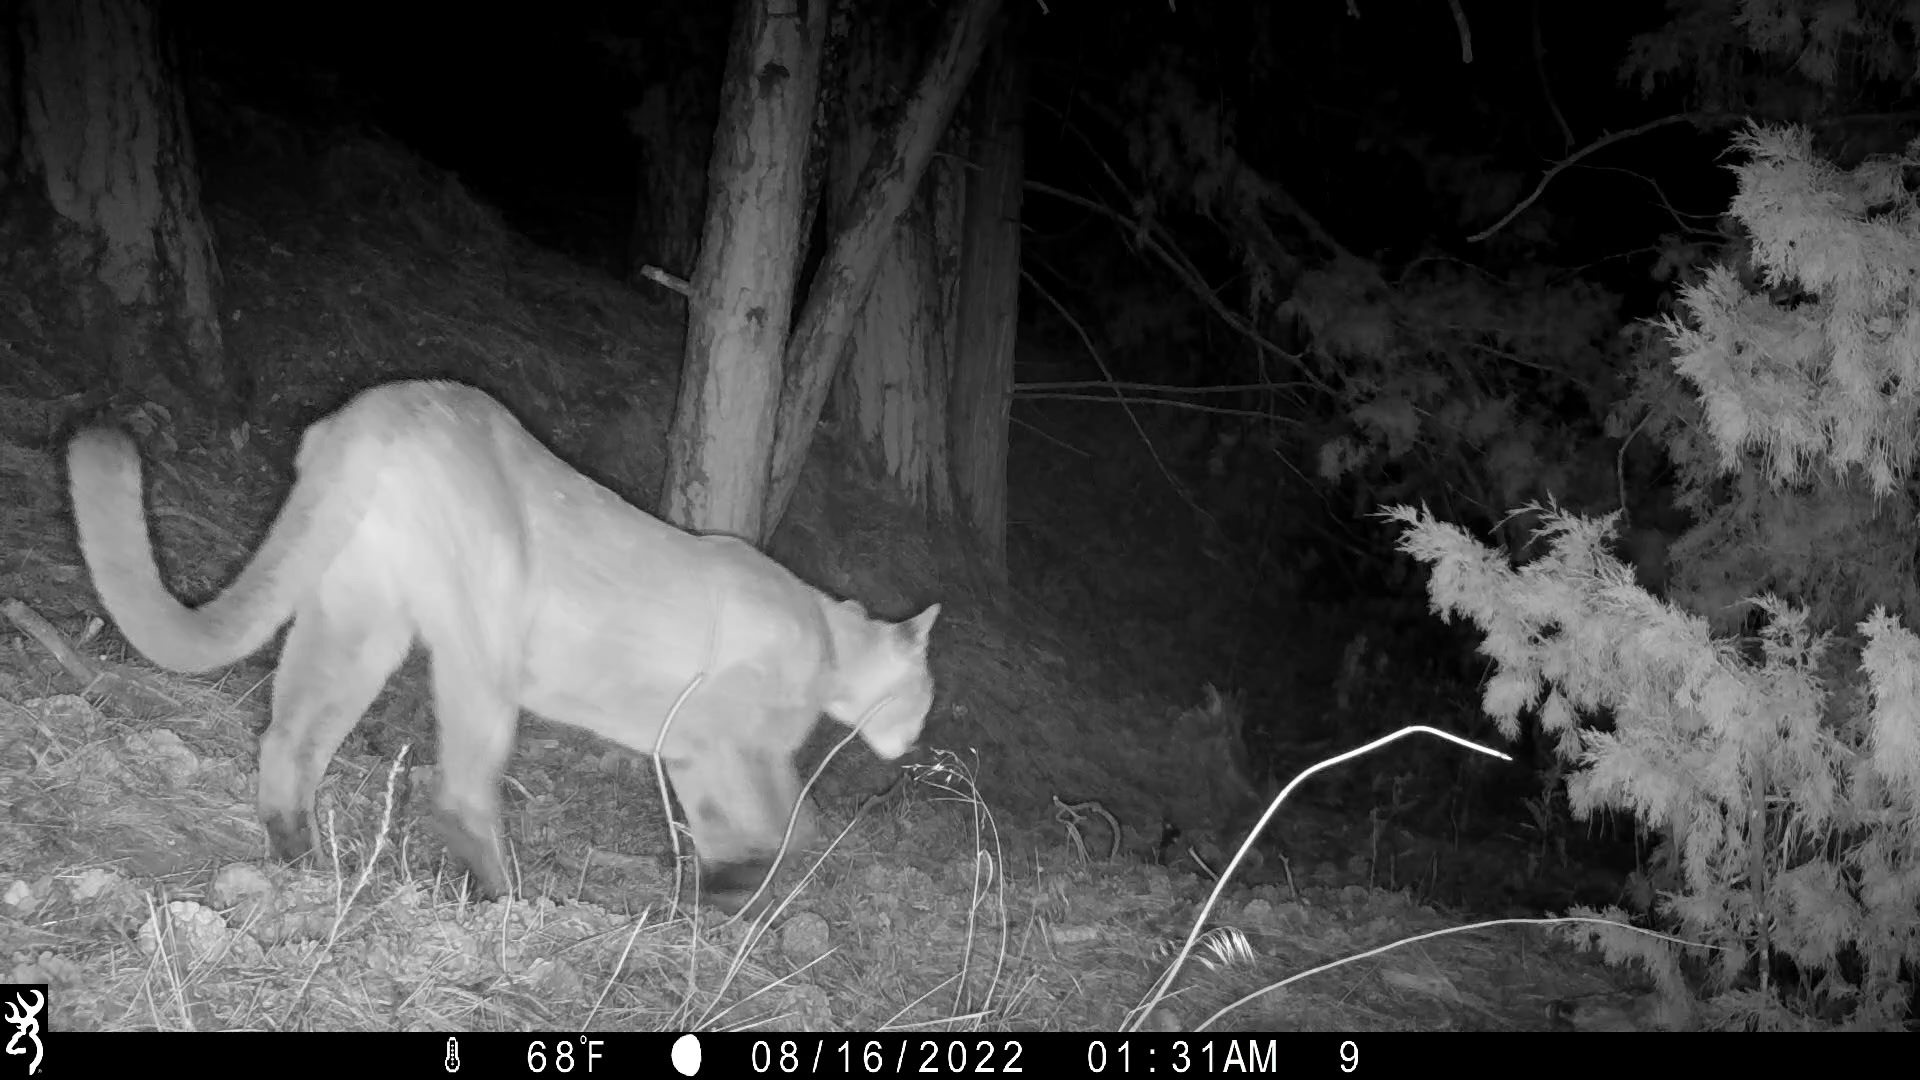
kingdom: Animalia
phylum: Chordata
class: Mammalia
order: Carnivora
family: Felidae
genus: Puma
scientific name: Puma concolor
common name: Puma
